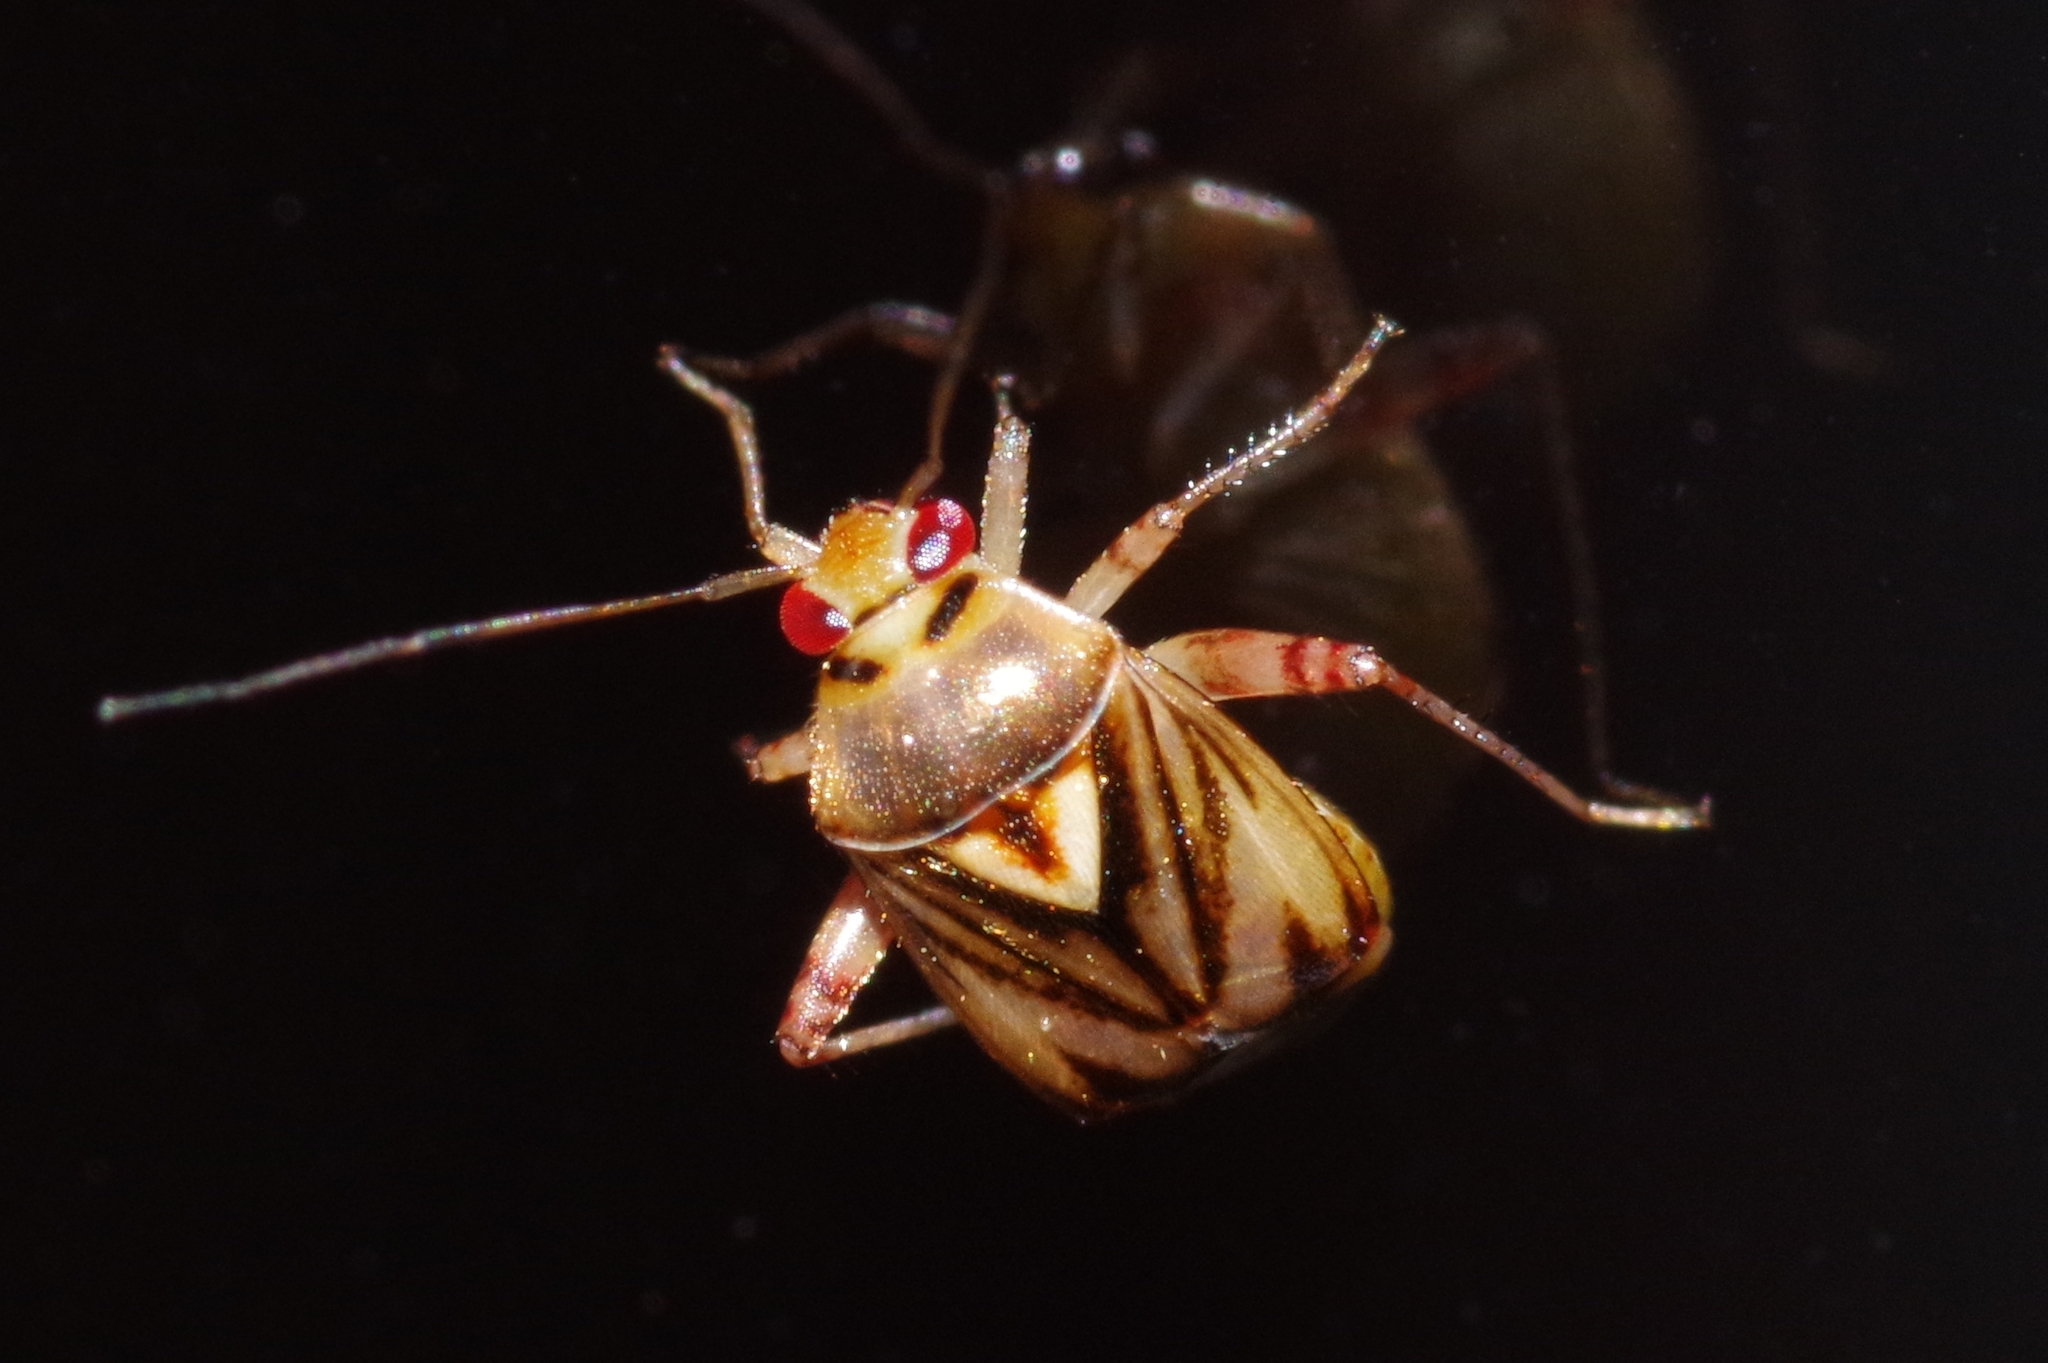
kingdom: Animalia
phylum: Arthropoda
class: Insecta
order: Hemiptera
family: Miridae
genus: Apolygus
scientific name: Apolygus insulicola
